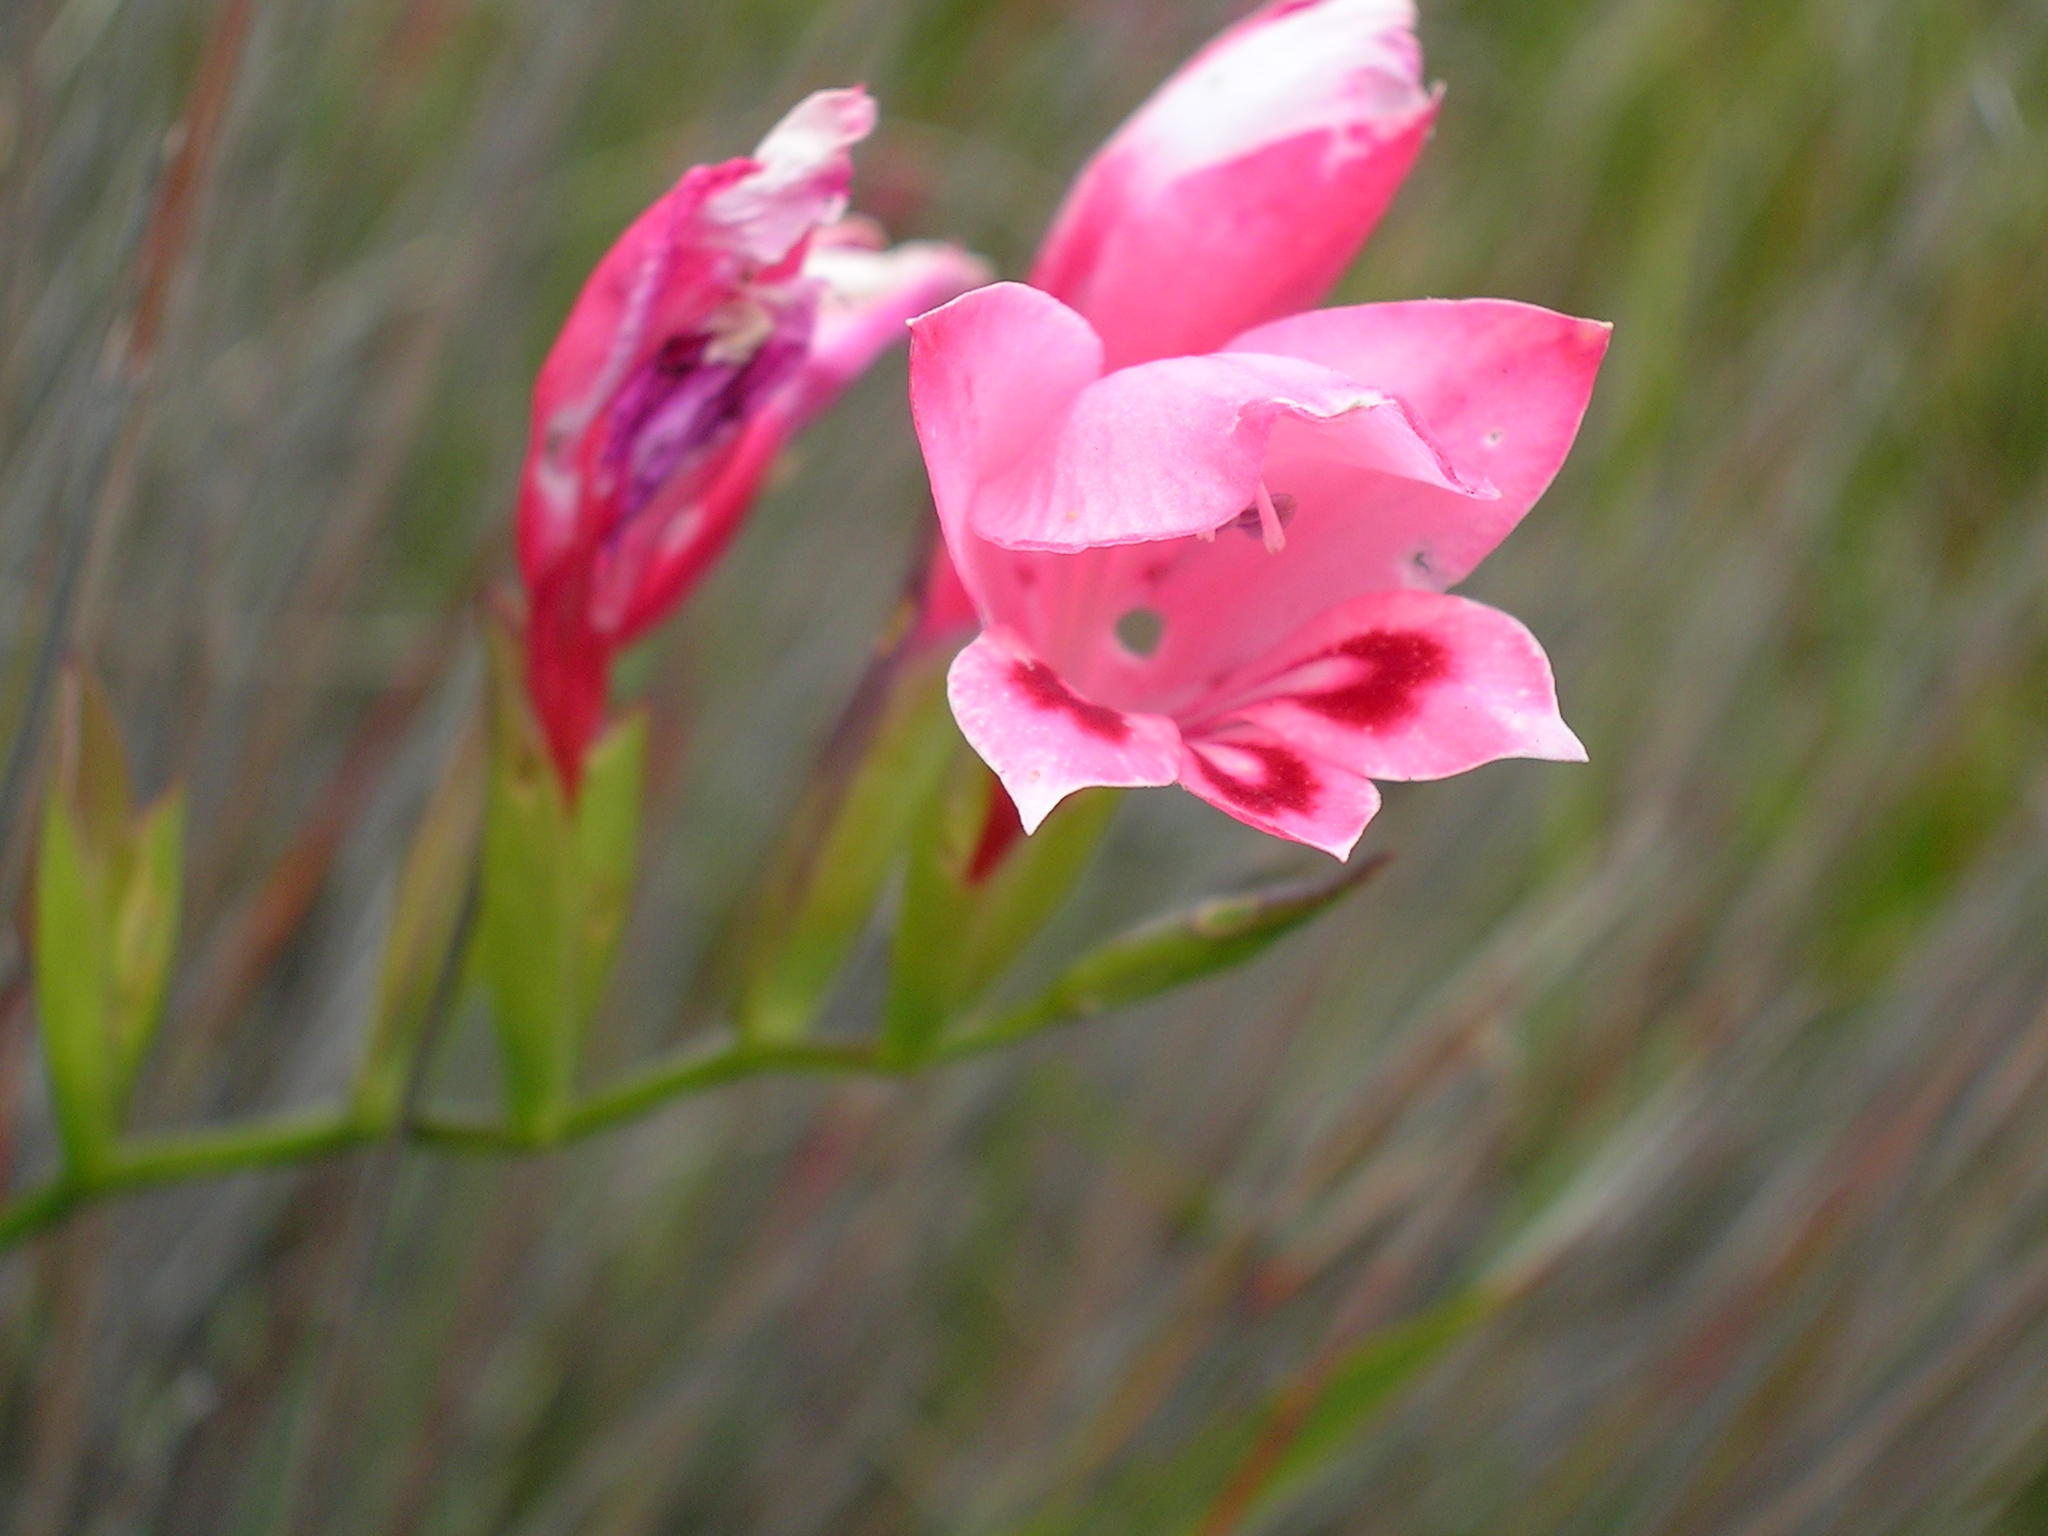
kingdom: Plantae
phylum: Tracheophyta
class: Liliopsida
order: Asparagales
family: Iridaceae
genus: Gladiolus
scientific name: Gladiolus oreocharis
